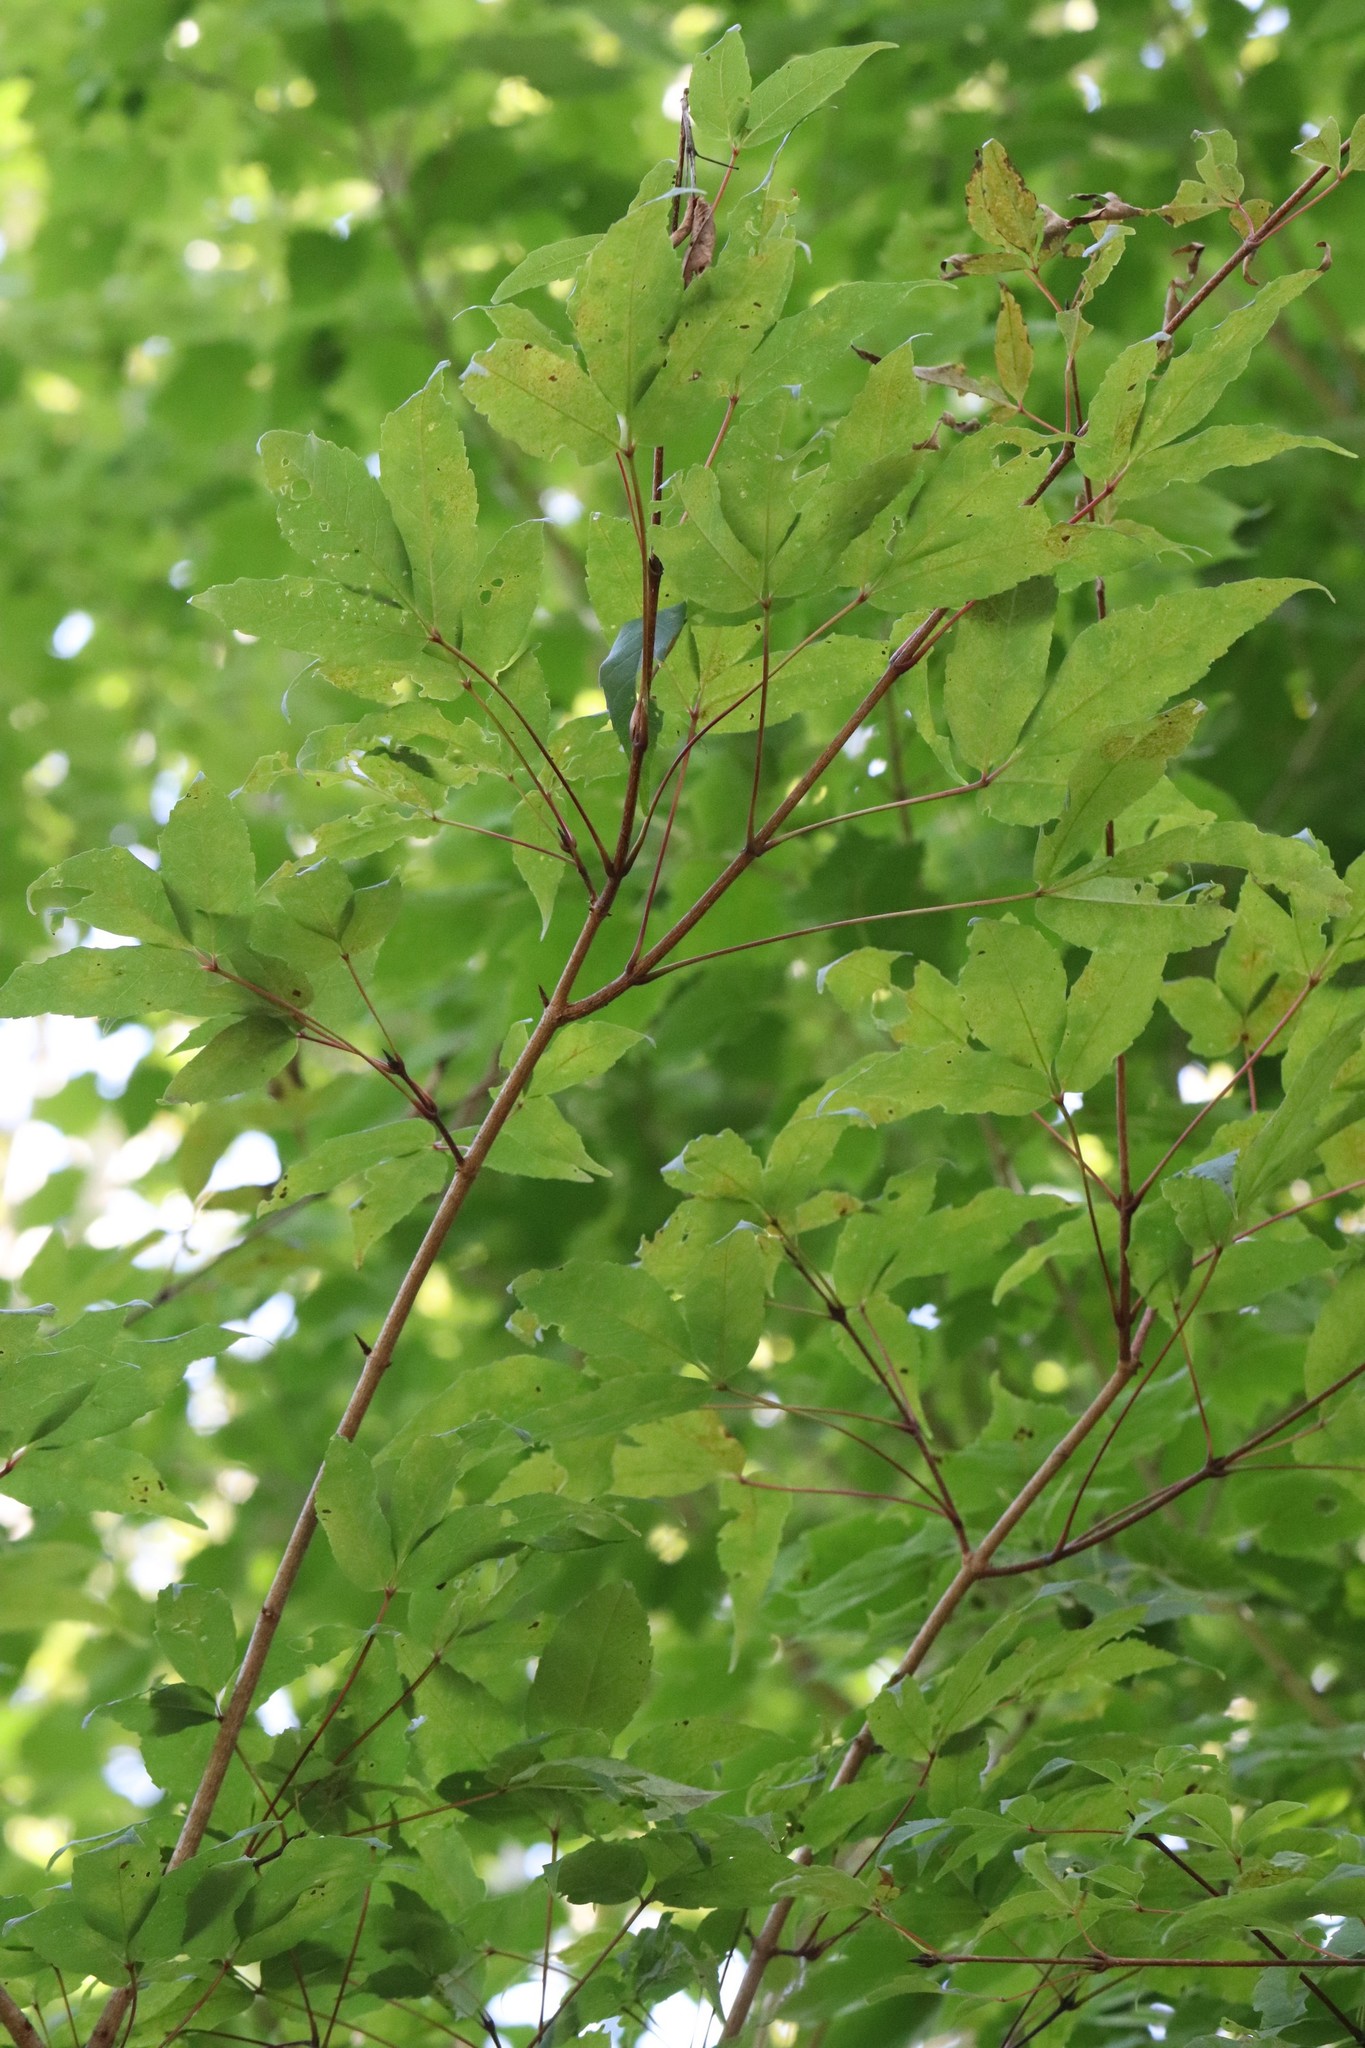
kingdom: Plantae
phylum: Tracheophyta
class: Magnoliopsida
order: Sapindales
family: Sapindaceae
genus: Acer
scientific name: Acer mandshuricum
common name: Manchurian maple
